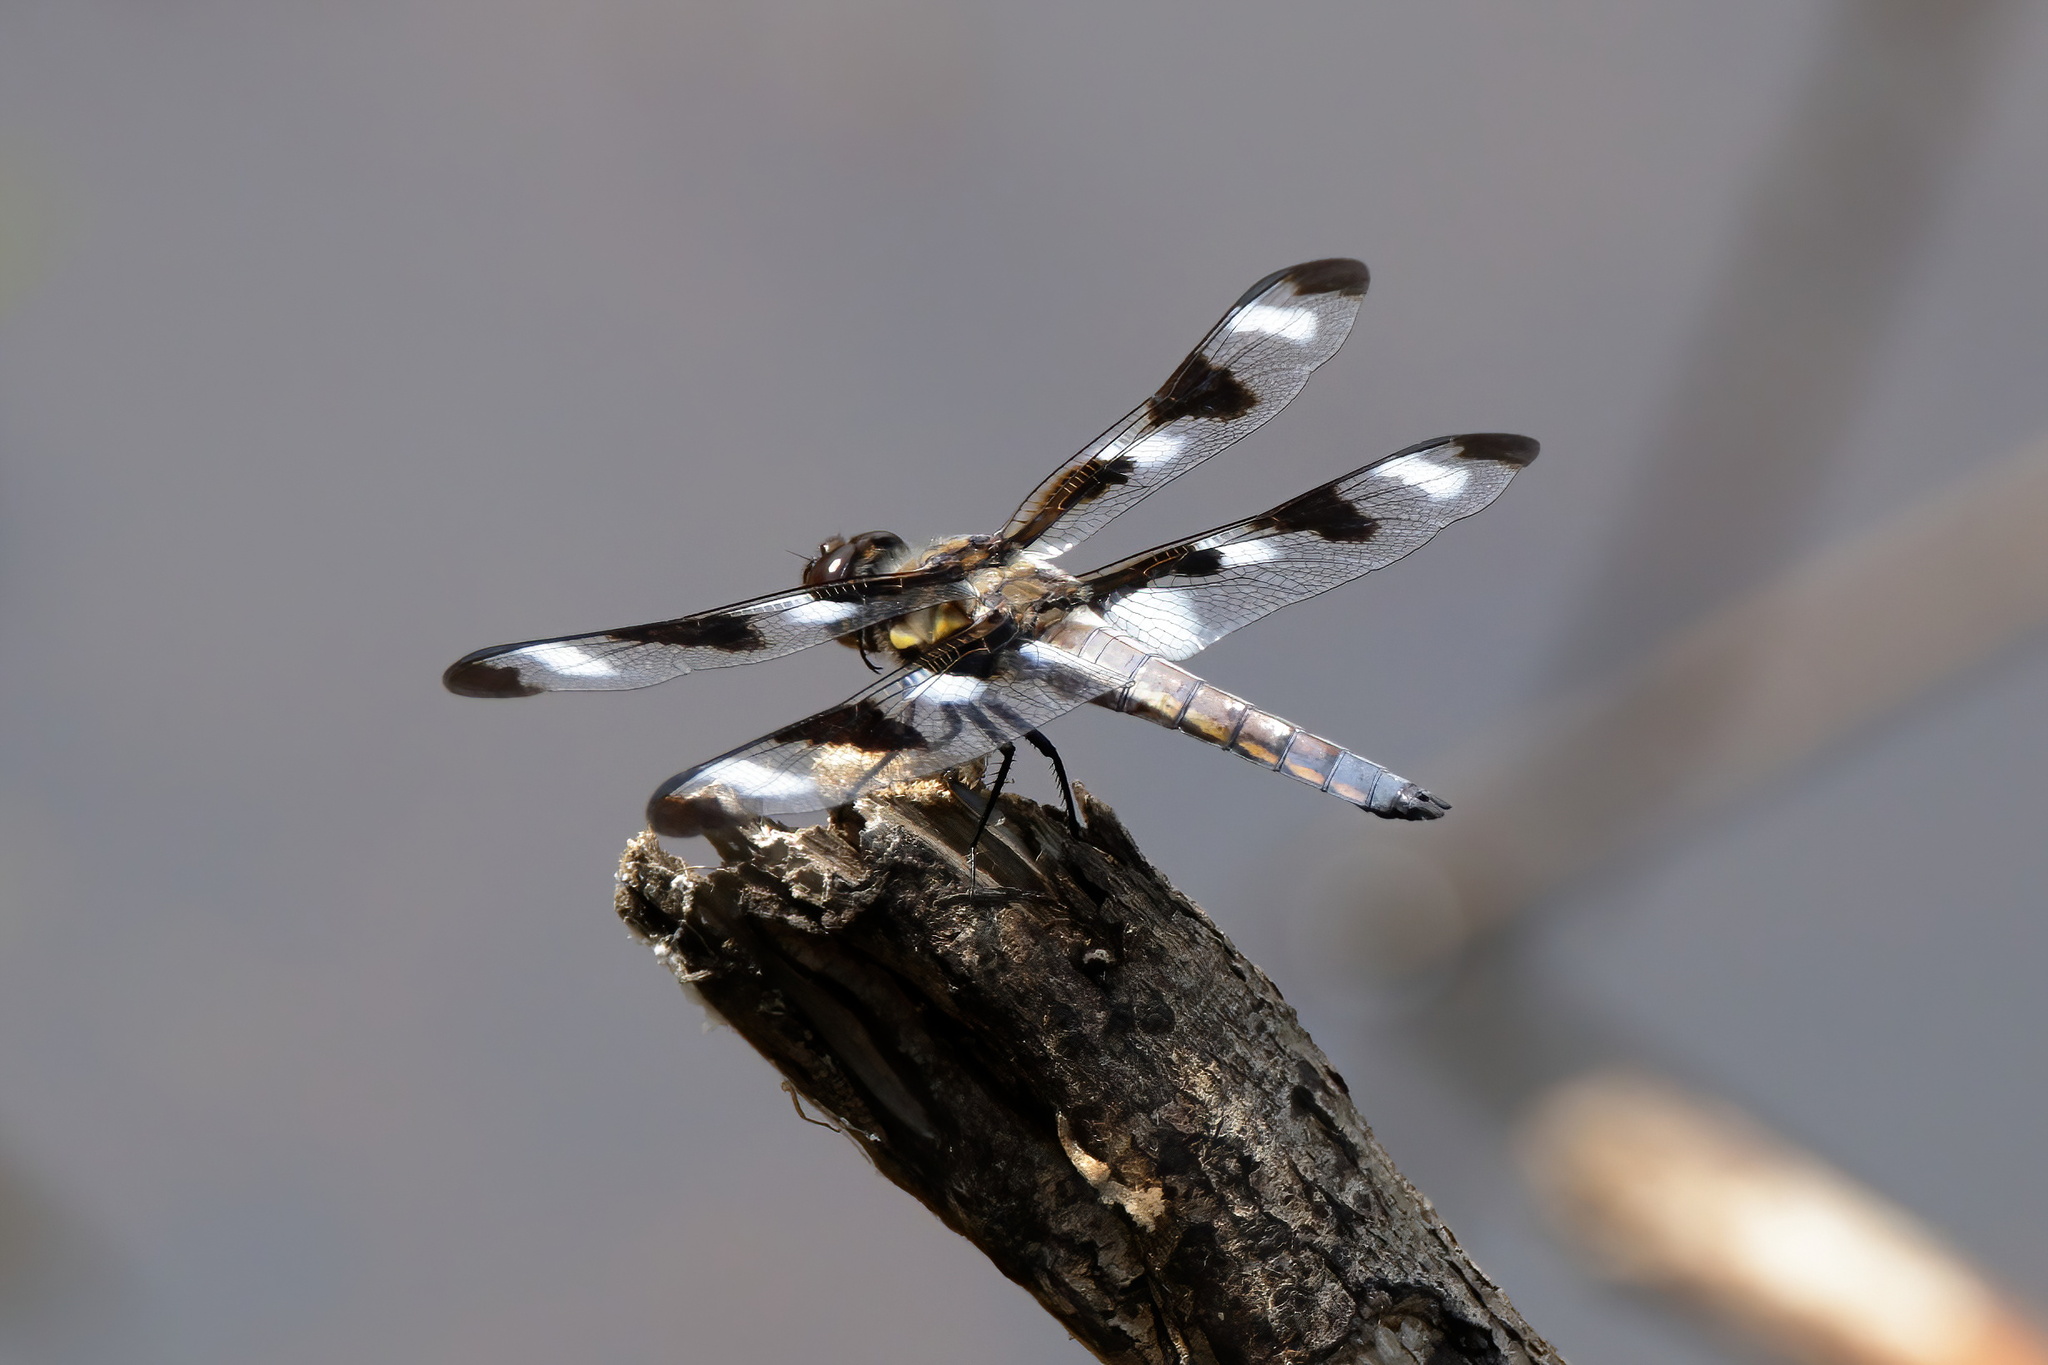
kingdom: Animalia
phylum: Arthropoda
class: Insecta
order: Odonata
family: Libellulidae
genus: Libellula
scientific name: Libellula pulchella
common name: Twelve-spotted skimmer
